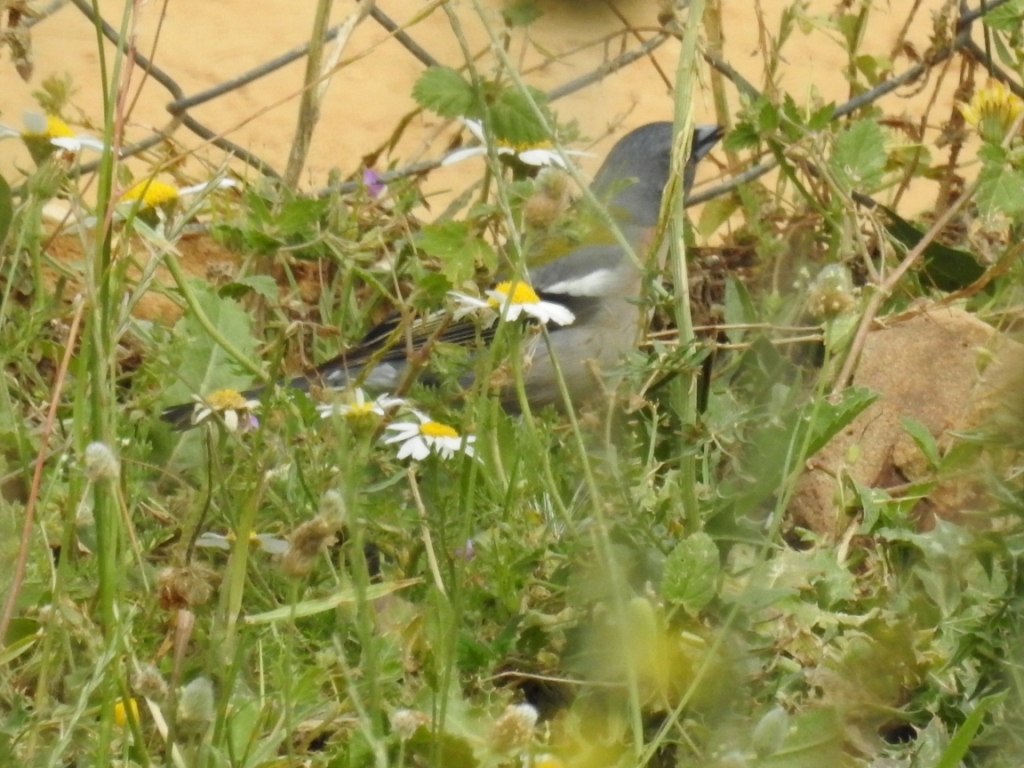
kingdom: Animalia
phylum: Chordata
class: Aves
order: Passeriformes
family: Fringillidae
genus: Fringilla
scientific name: Fringilla spodiogenys
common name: African chaffinch
